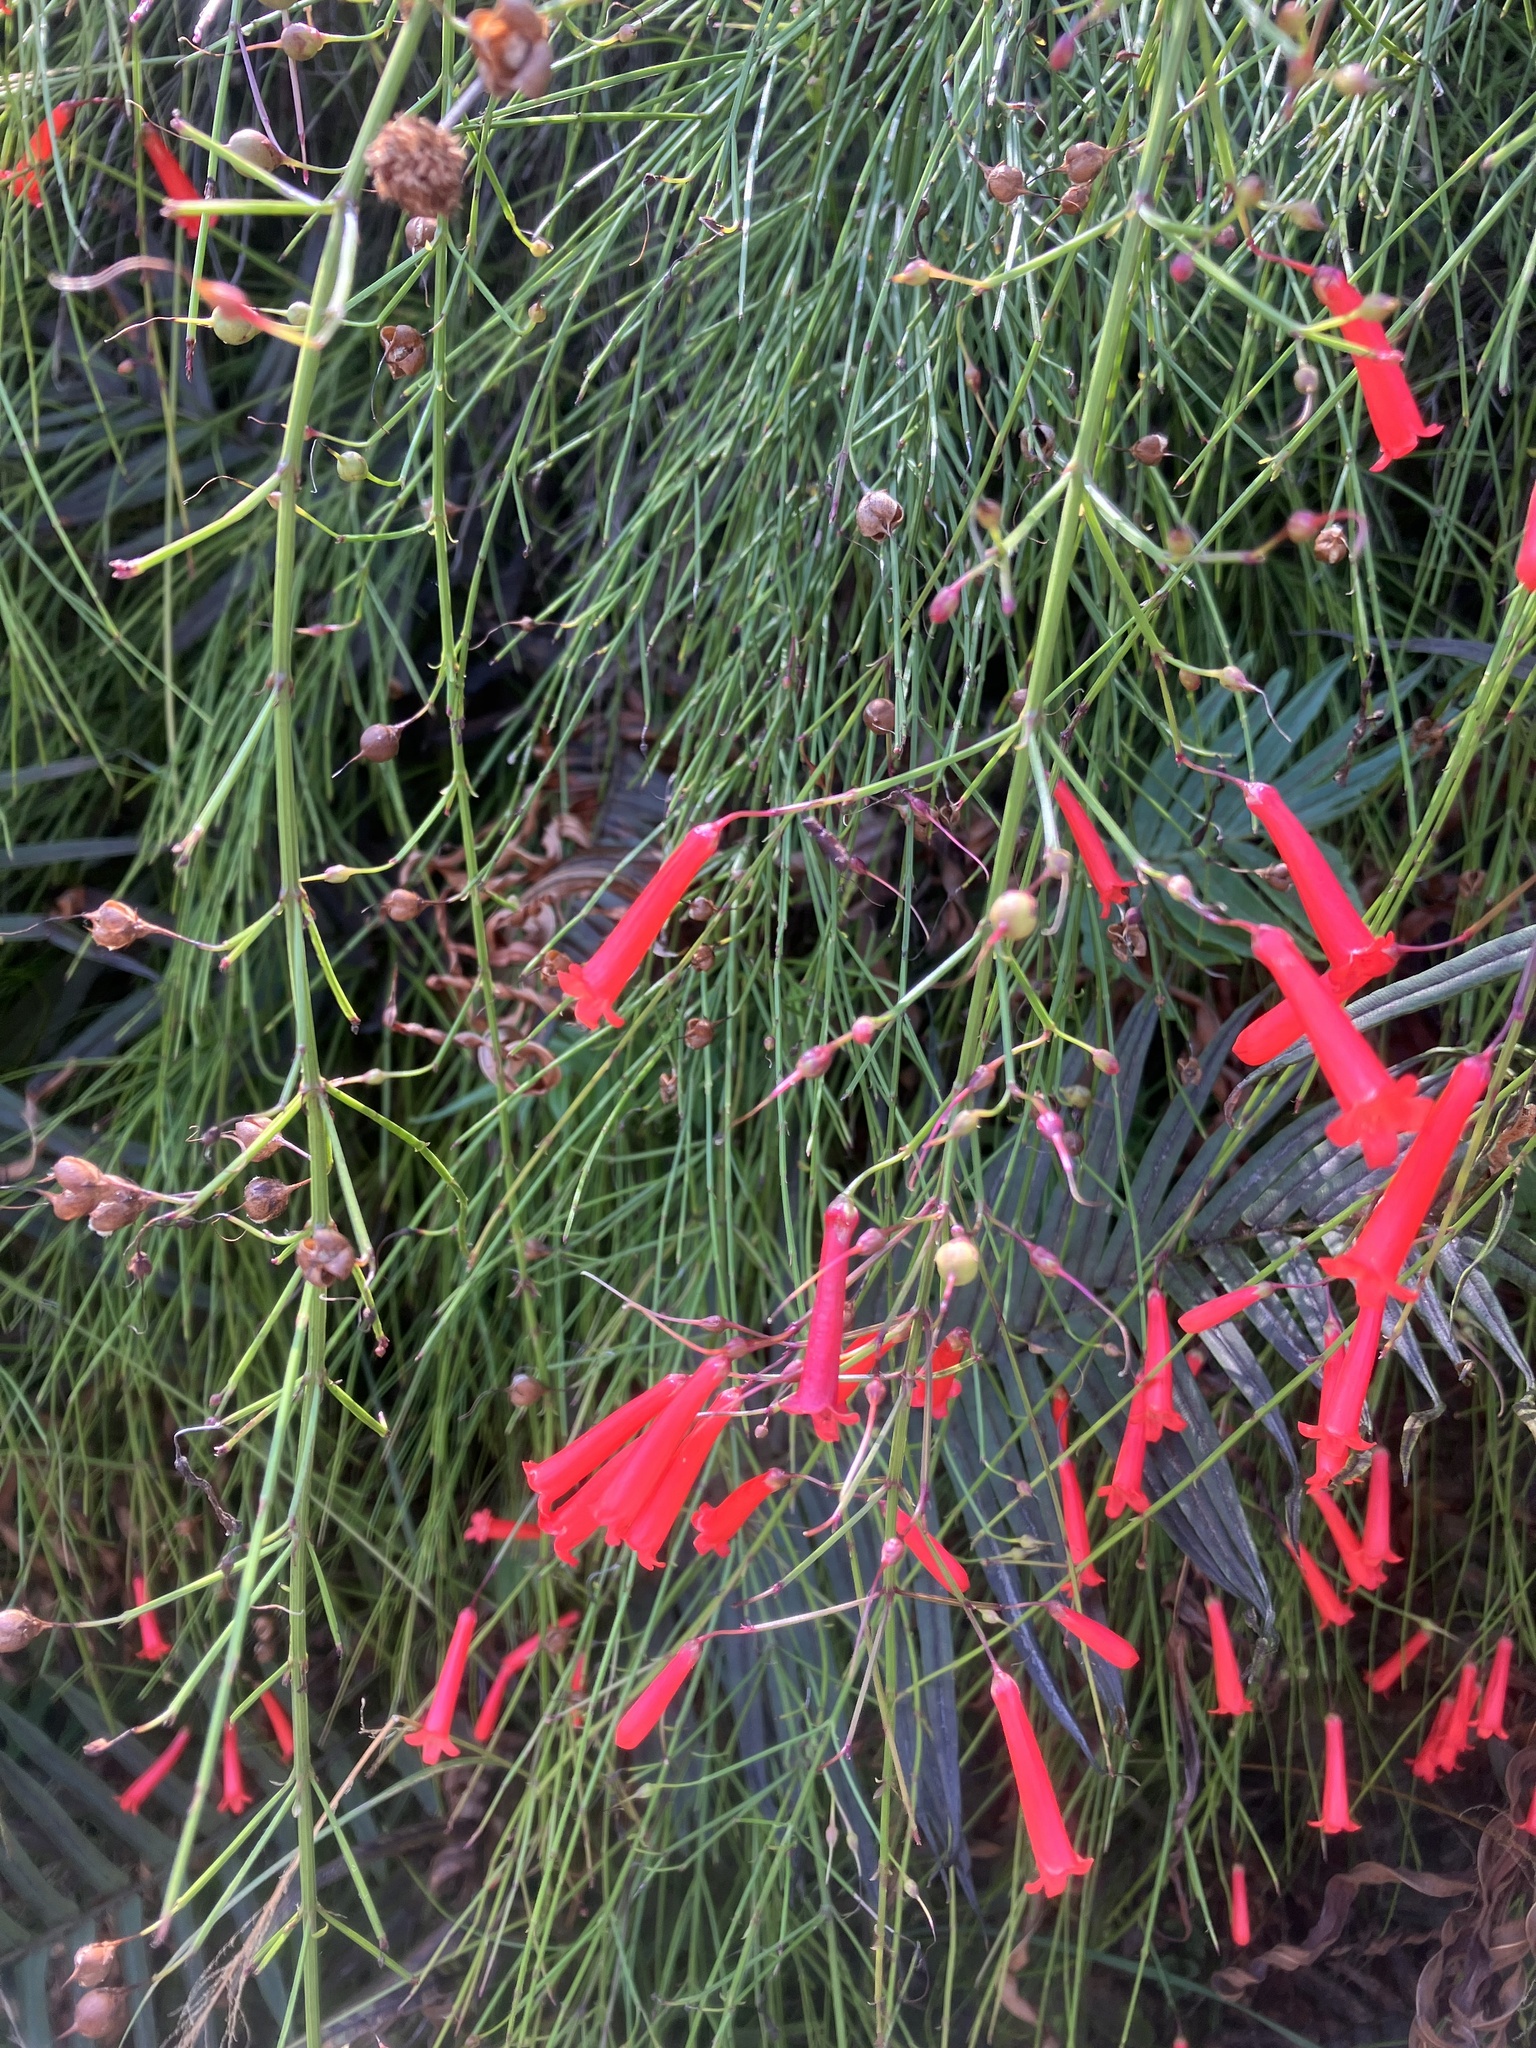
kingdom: Plantae
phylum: Tracheophyta
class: Magnoliopsida
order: Lamiales
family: Plantaginaceae
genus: Russelia
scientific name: Russelia equisetiformis
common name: Fountainbush
